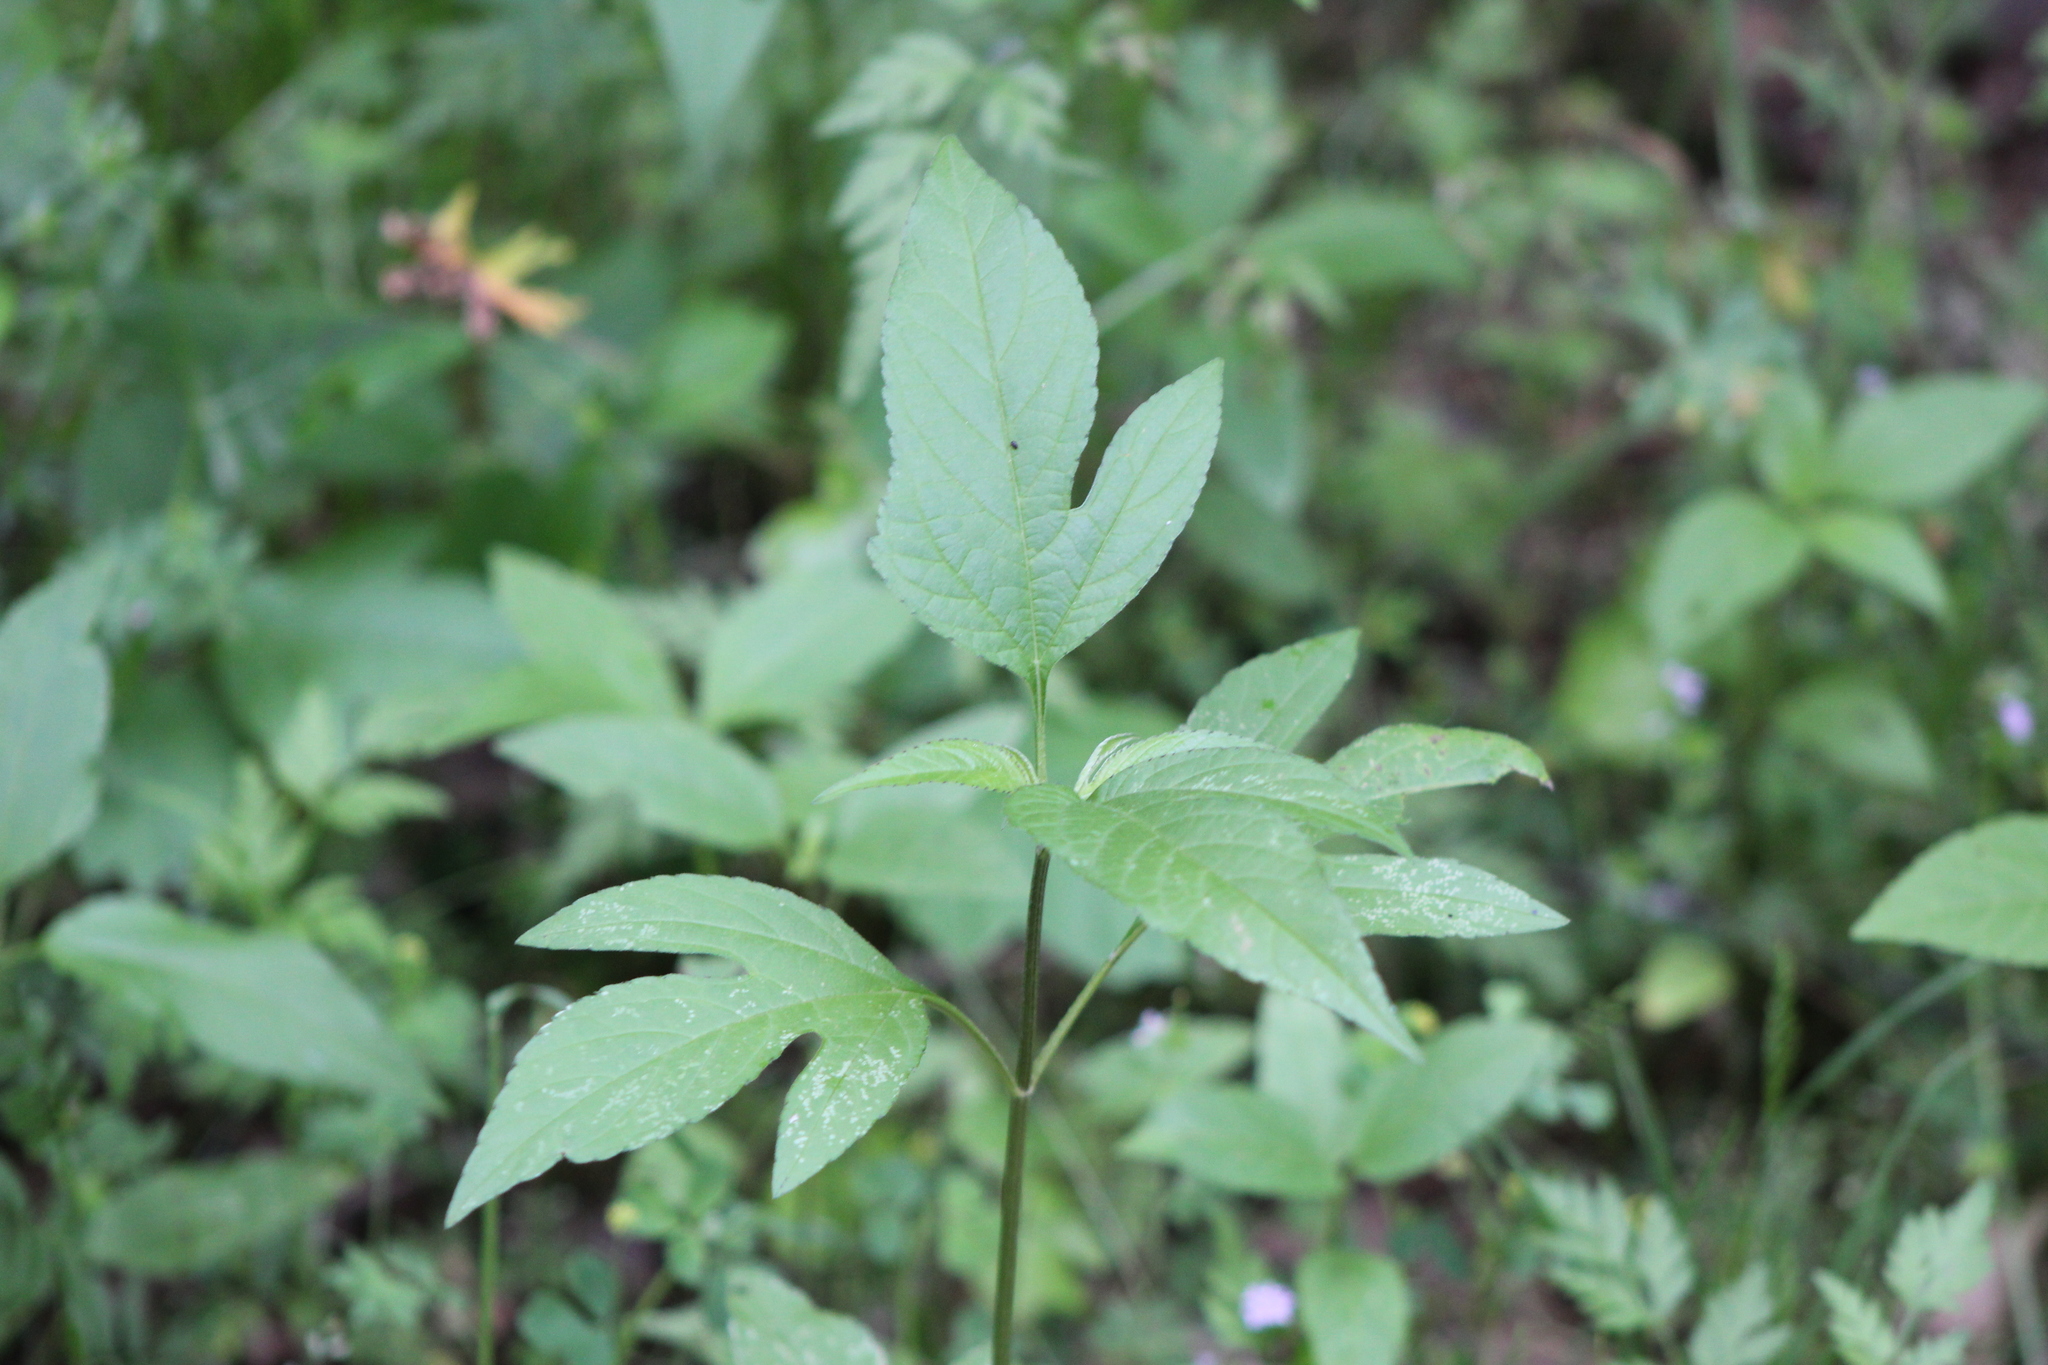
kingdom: Plantae
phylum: Tracheophyta
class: Magnoliopsida
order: Asterales
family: Asteraceae
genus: Ambrosia
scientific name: Ambrosia trifida
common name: Giant ragweed
